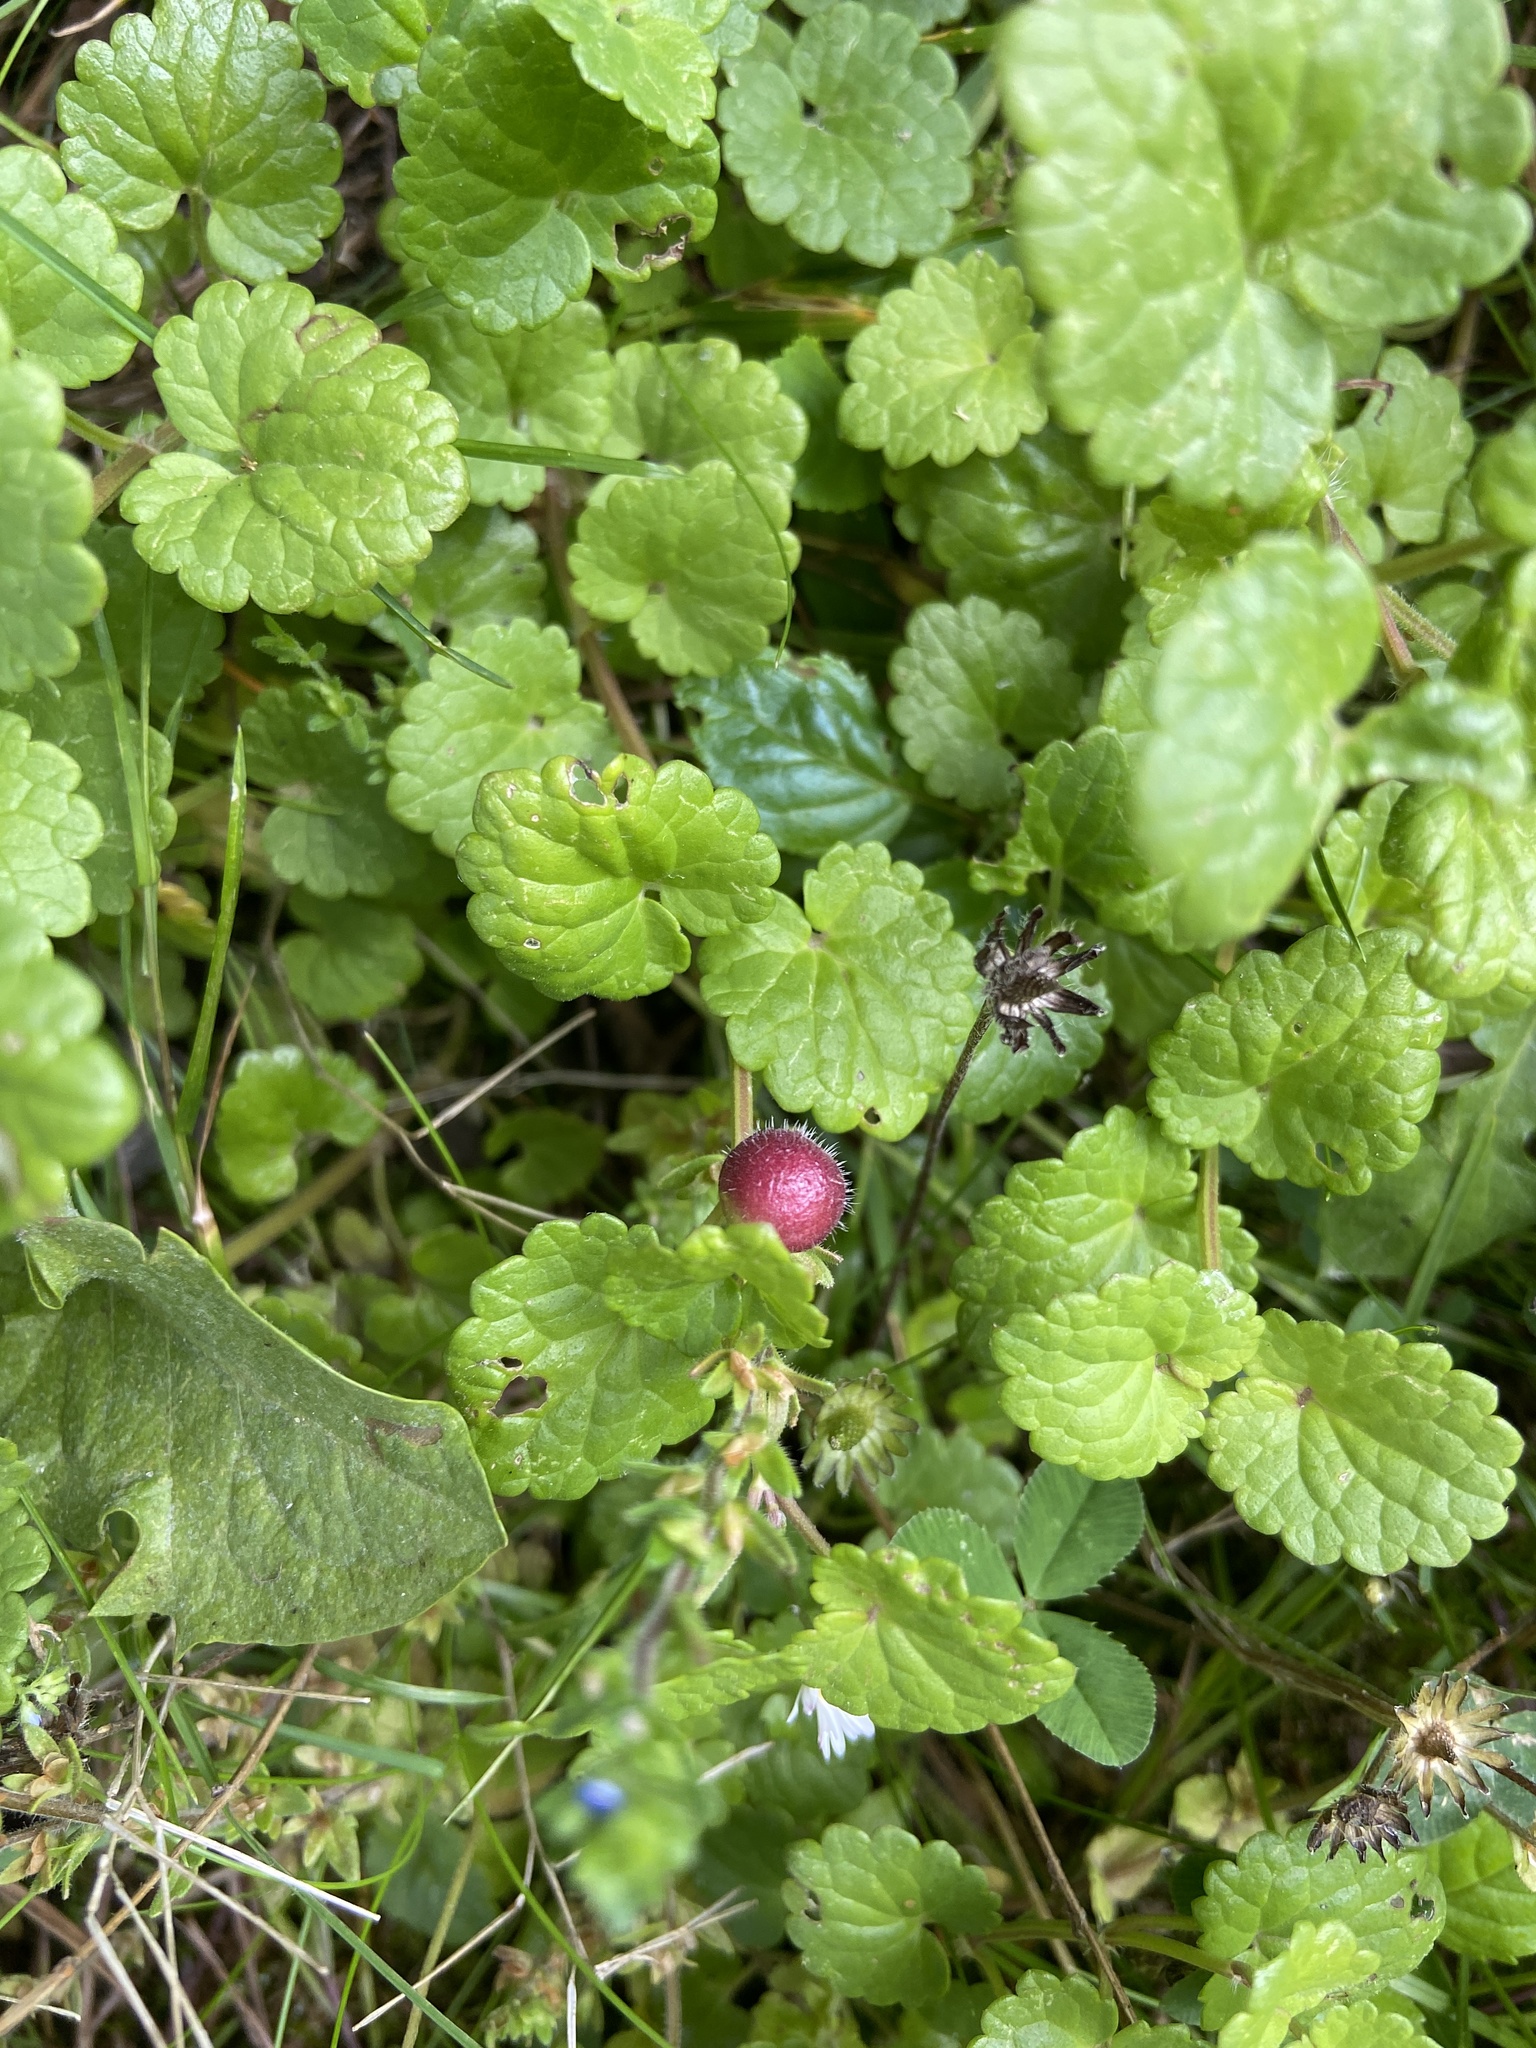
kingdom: Animalia
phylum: Arthropoda
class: Insecta
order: Hymenoptera
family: Cynipidae
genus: Liposthenes
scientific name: Liposthenes glechomae
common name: Gall wasp
